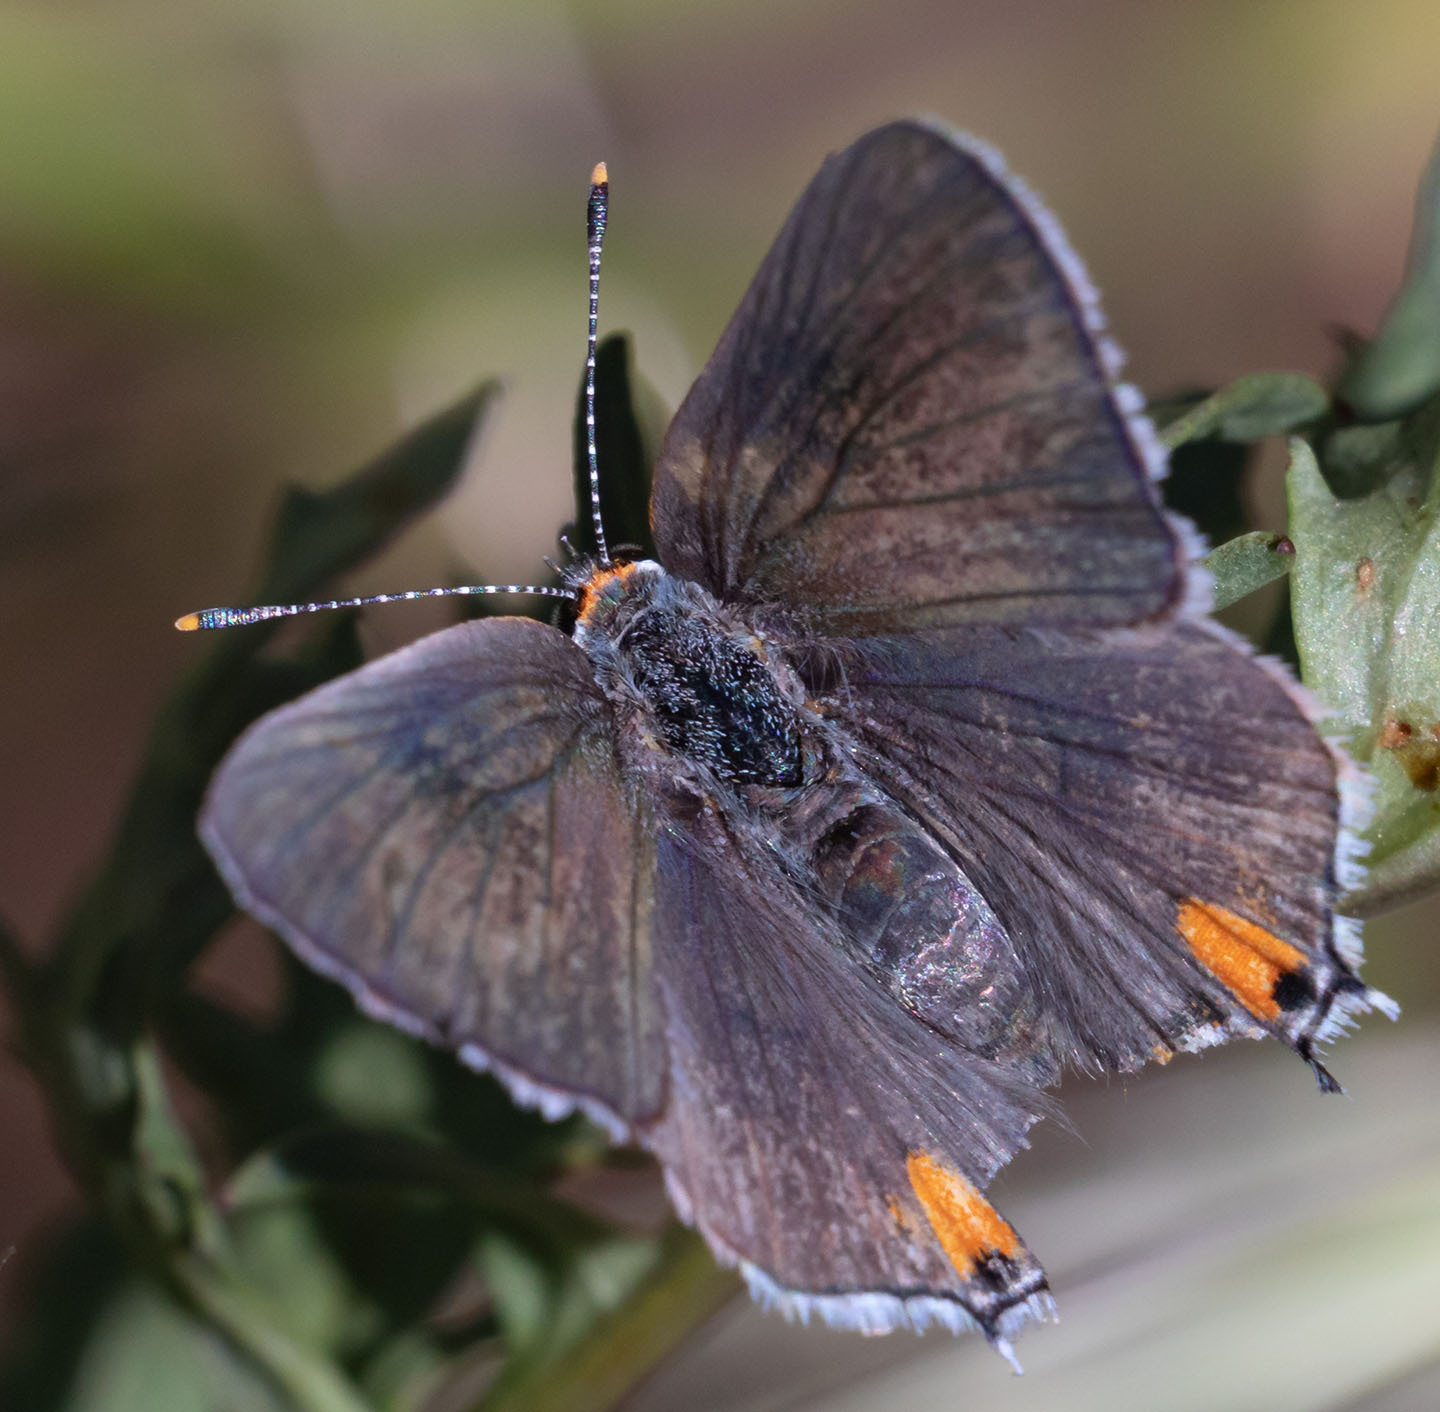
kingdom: Animalia
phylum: Arthropoda
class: Insecta
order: Lepidoptera
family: Lycaenidae
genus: Strymon
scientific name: Strymon melinus
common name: Gray hairstreak
